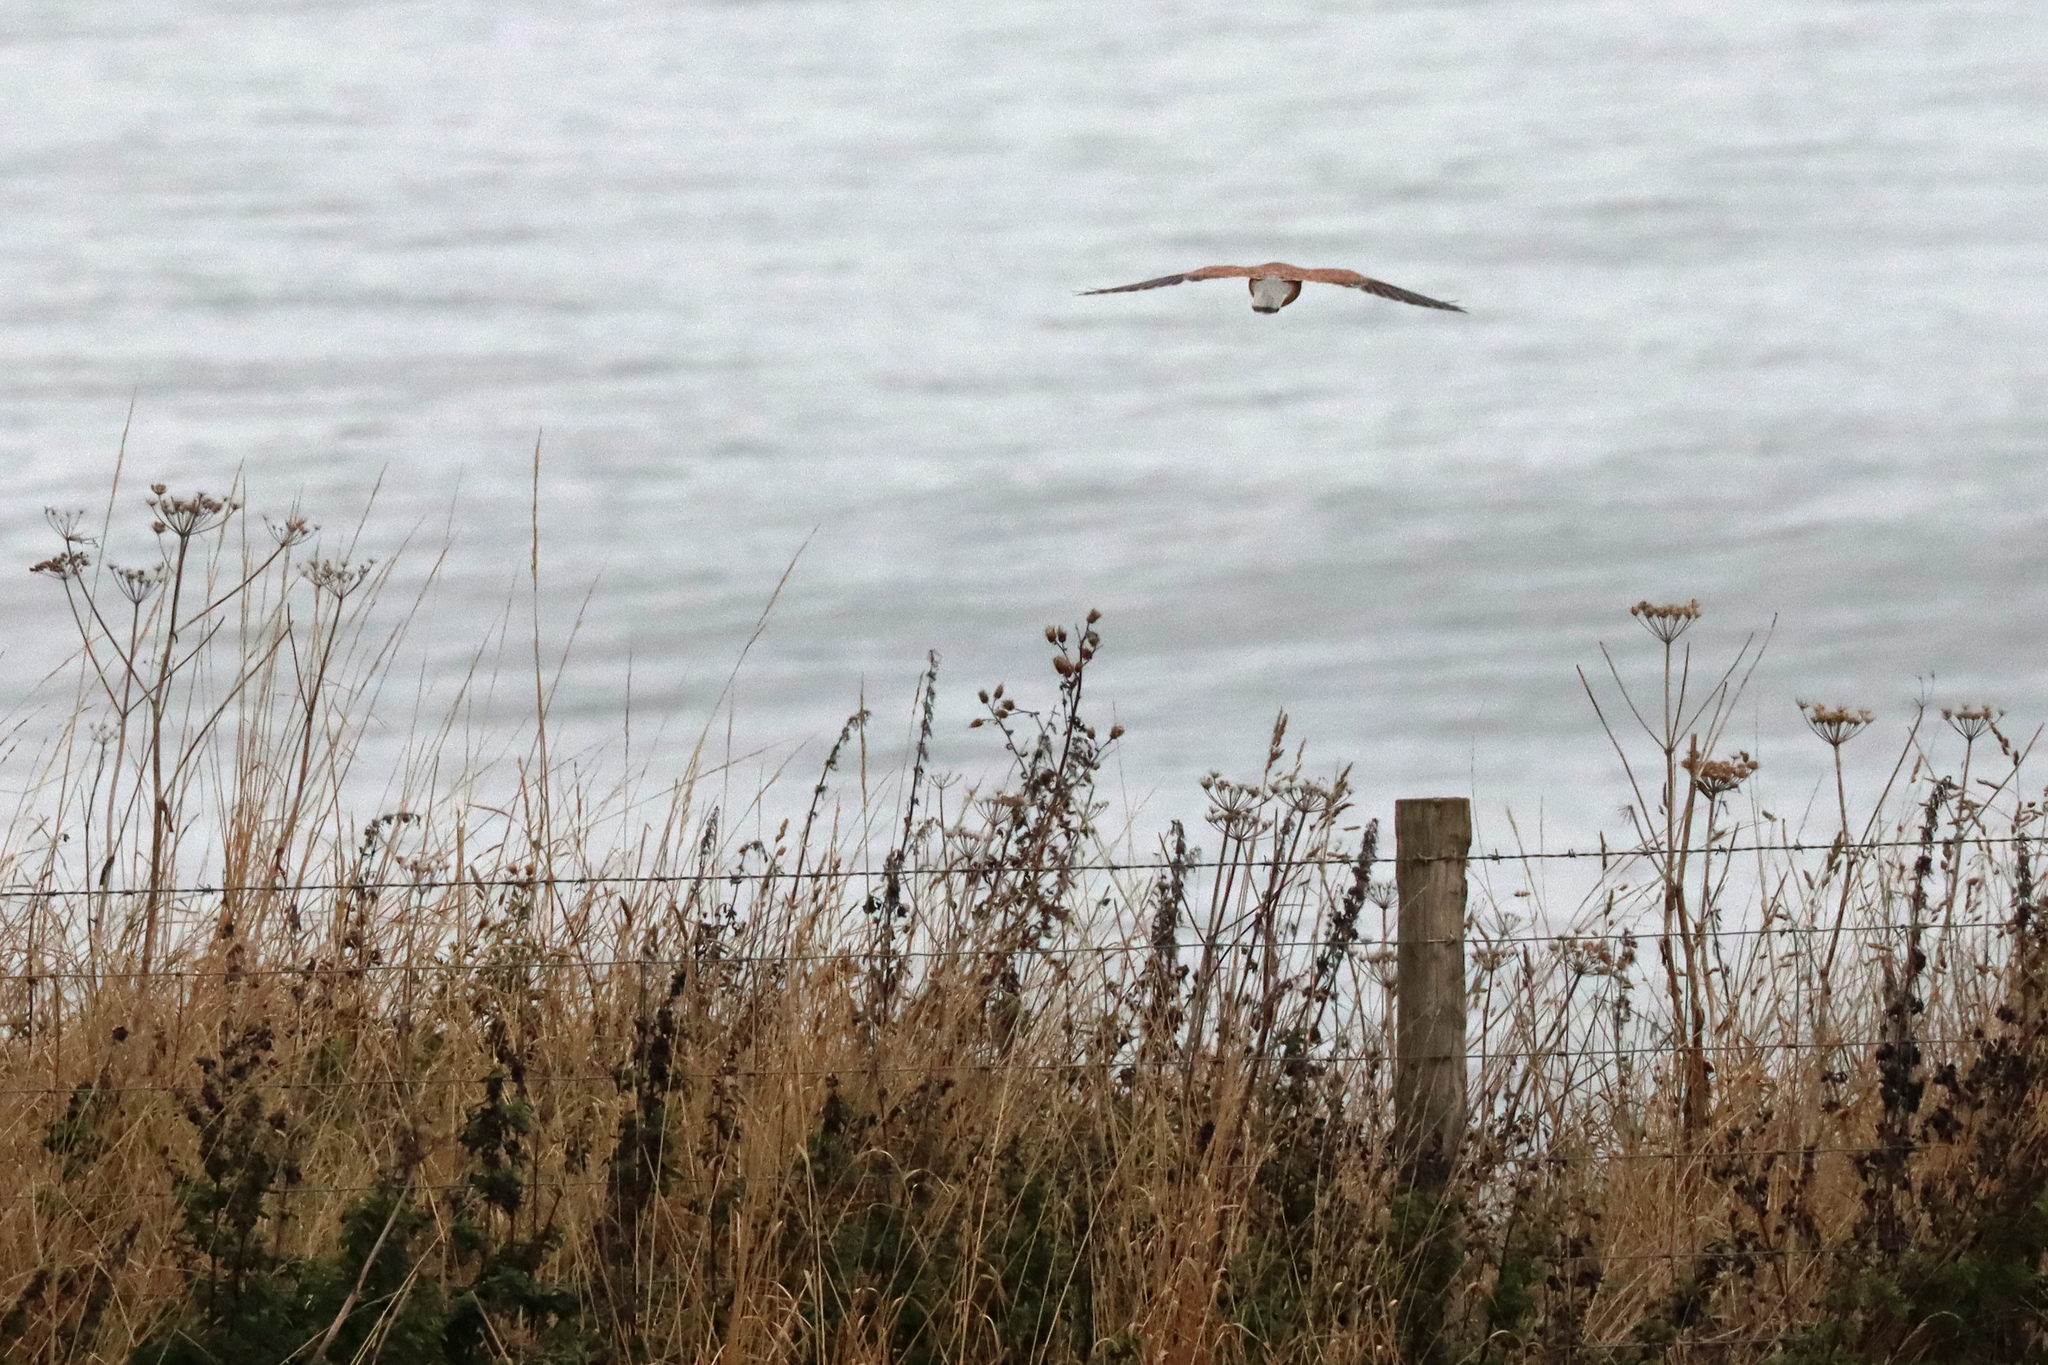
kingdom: Animalia
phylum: Chordata
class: Aves
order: Falconiformes
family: Falconidae
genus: Falco
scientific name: Falco tinnunculus
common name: Common kestrel
